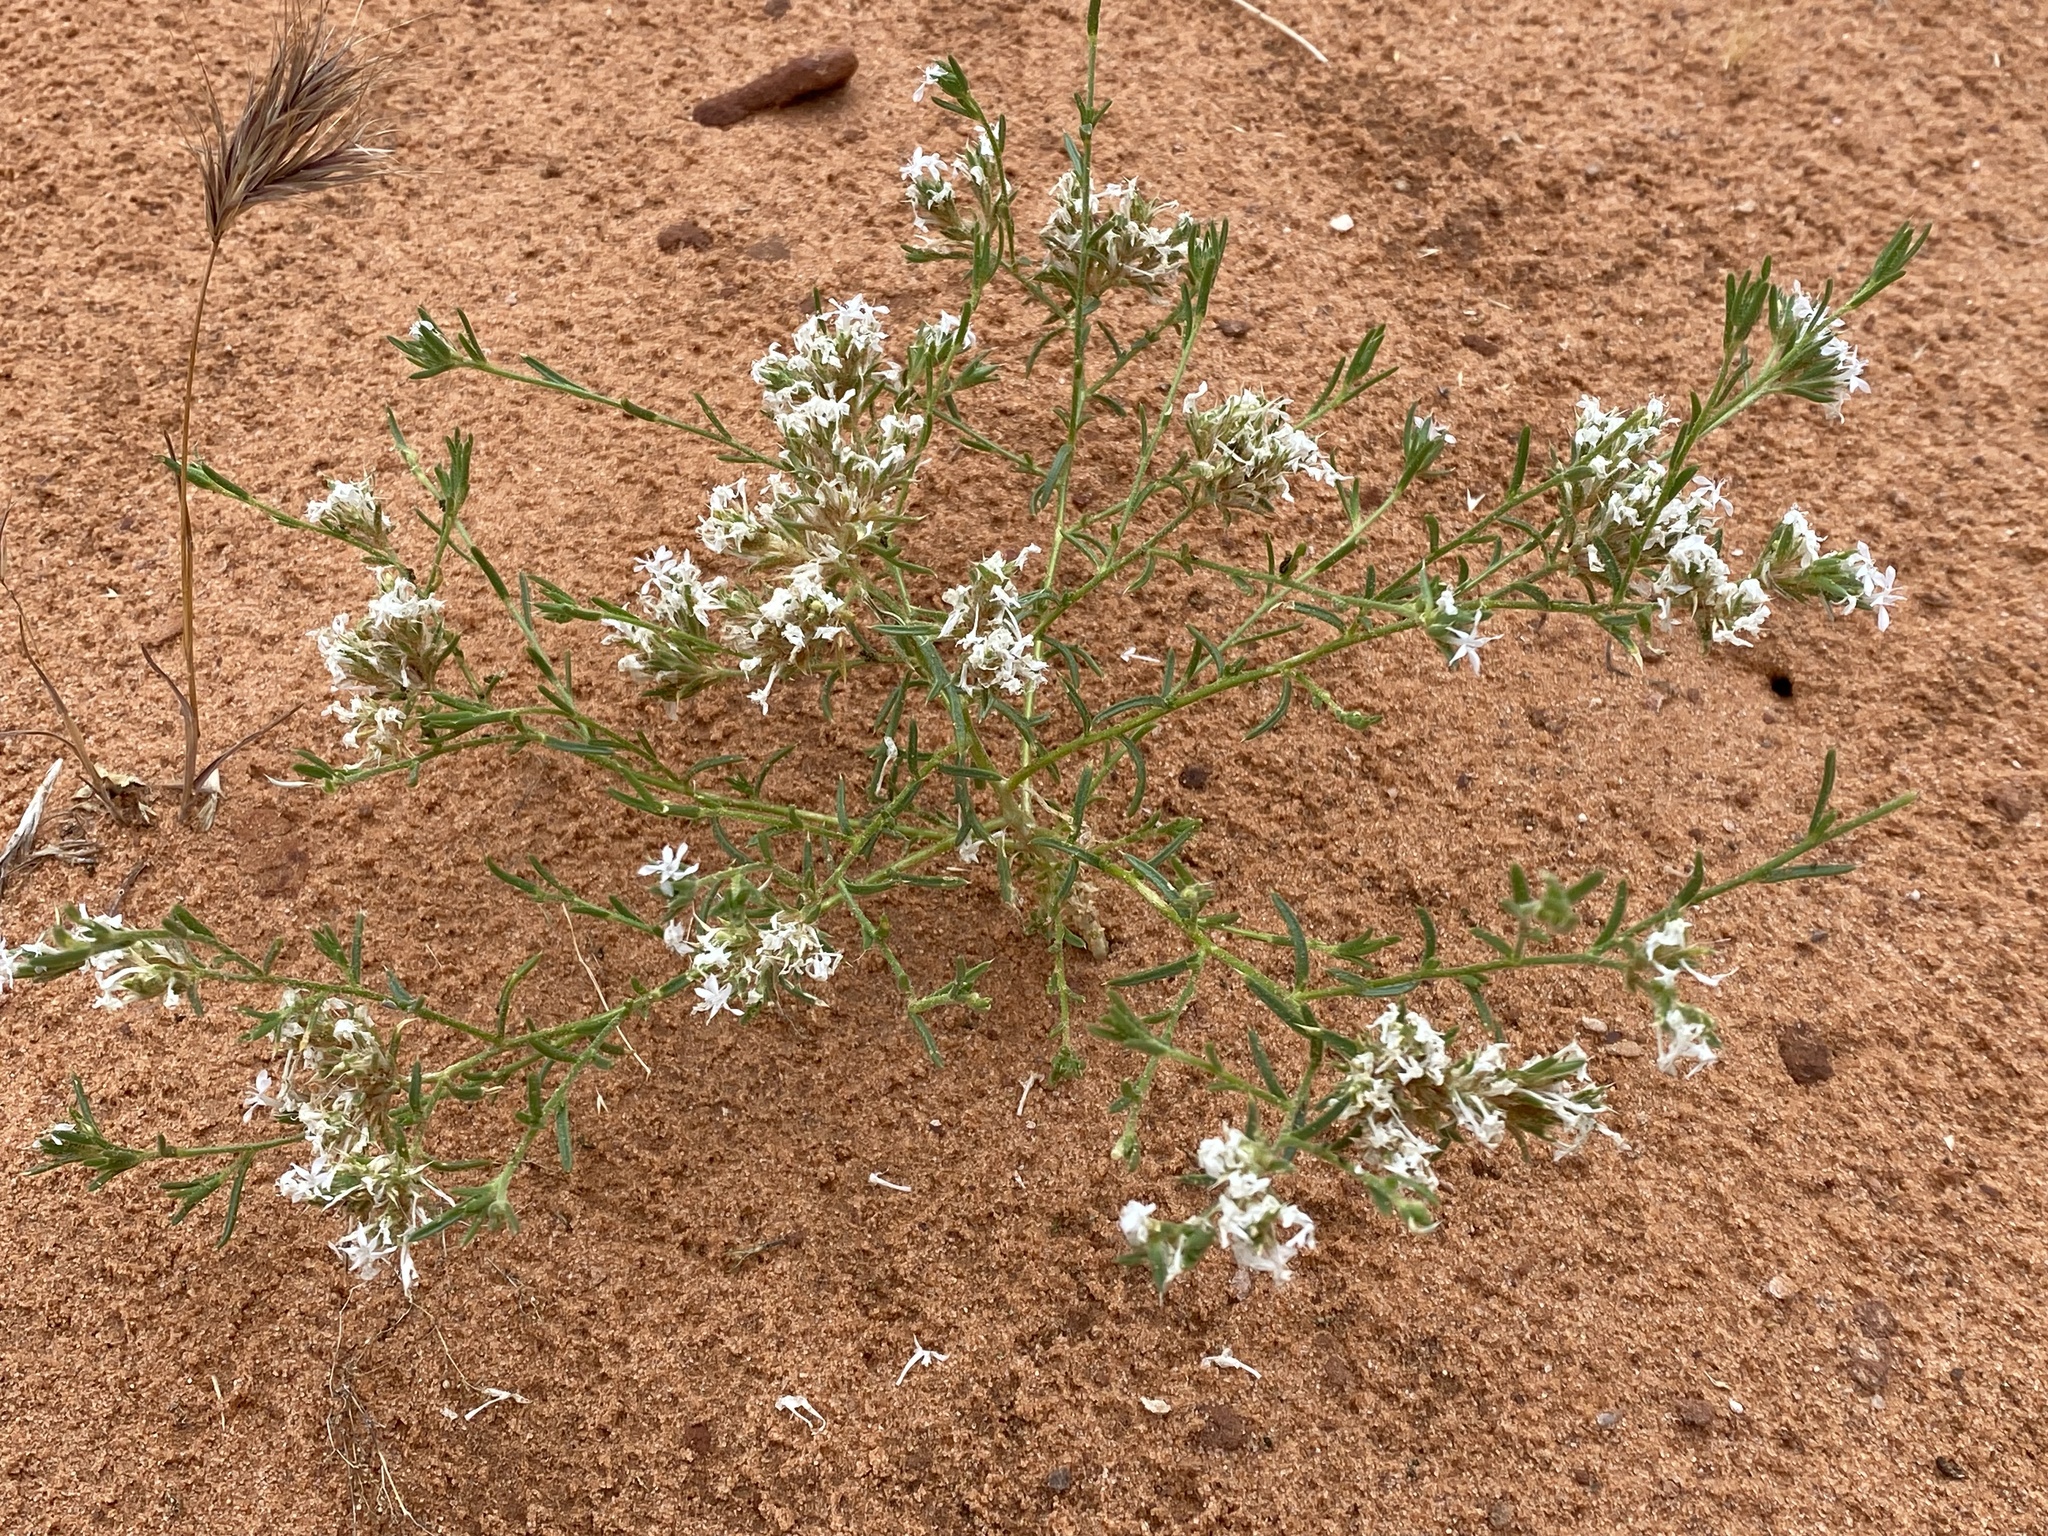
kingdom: Plantae
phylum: Tracheophyta
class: Magnoliopsida
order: Ericales
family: Polemoniaceae
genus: Ipomopsis
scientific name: Ipomopsis gunnisonii
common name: Sand-dune gilia
